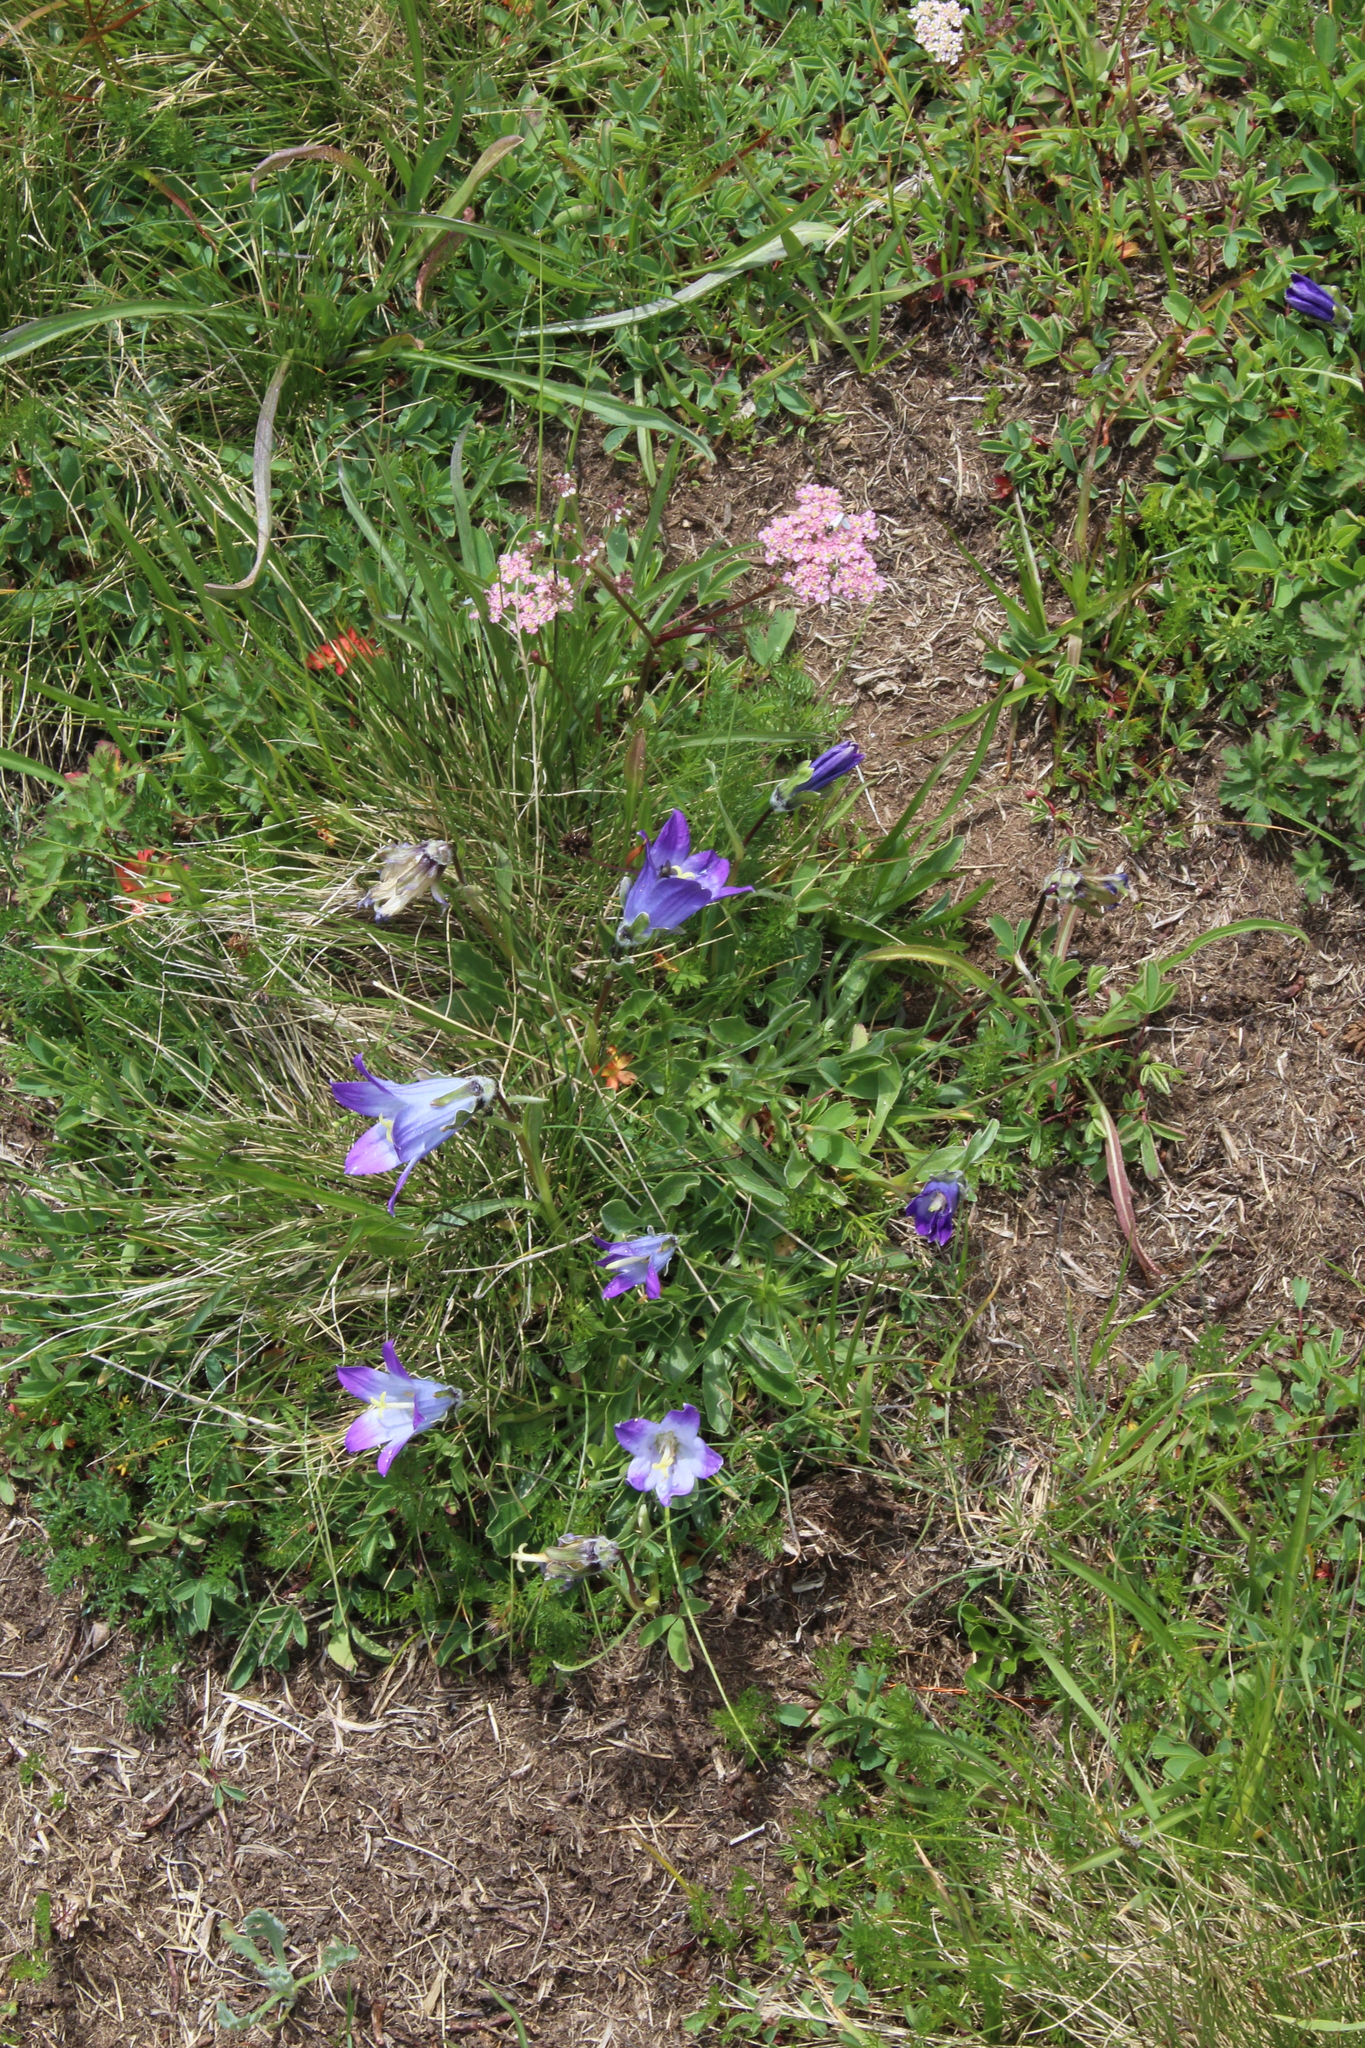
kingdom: Plantae
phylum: Tracheophyta
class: Magnoliopsida
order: Asterales
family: Campanulaceae
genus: Campanula
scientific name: Campanula tridentata
